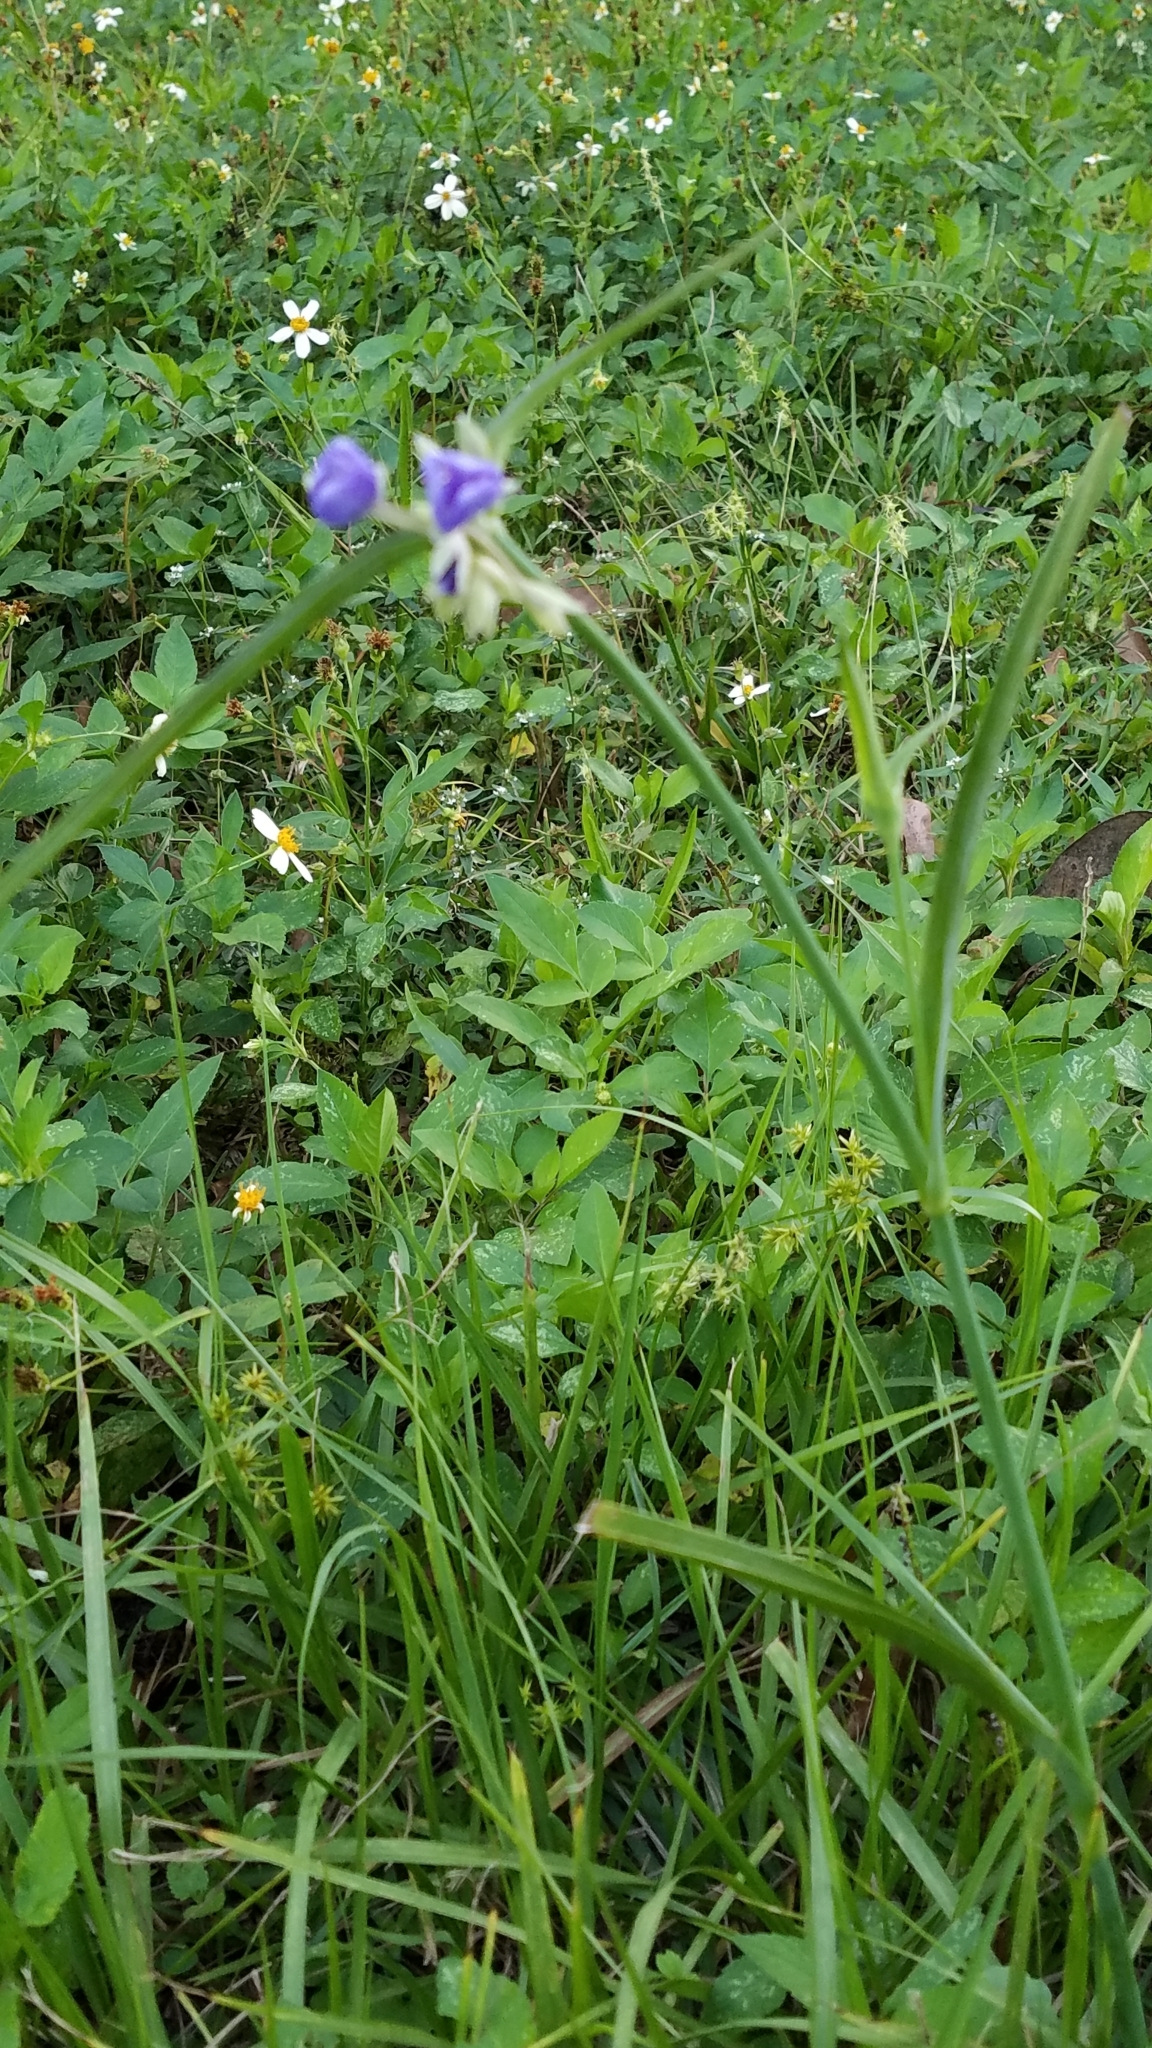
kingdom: Plantae
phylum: Tracheophyta
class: Liliopsida
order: Commelinales
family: Commelinaceae
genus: Tradescantia
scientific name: Tradescantia ohiensis
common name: Ohio spiderwort
